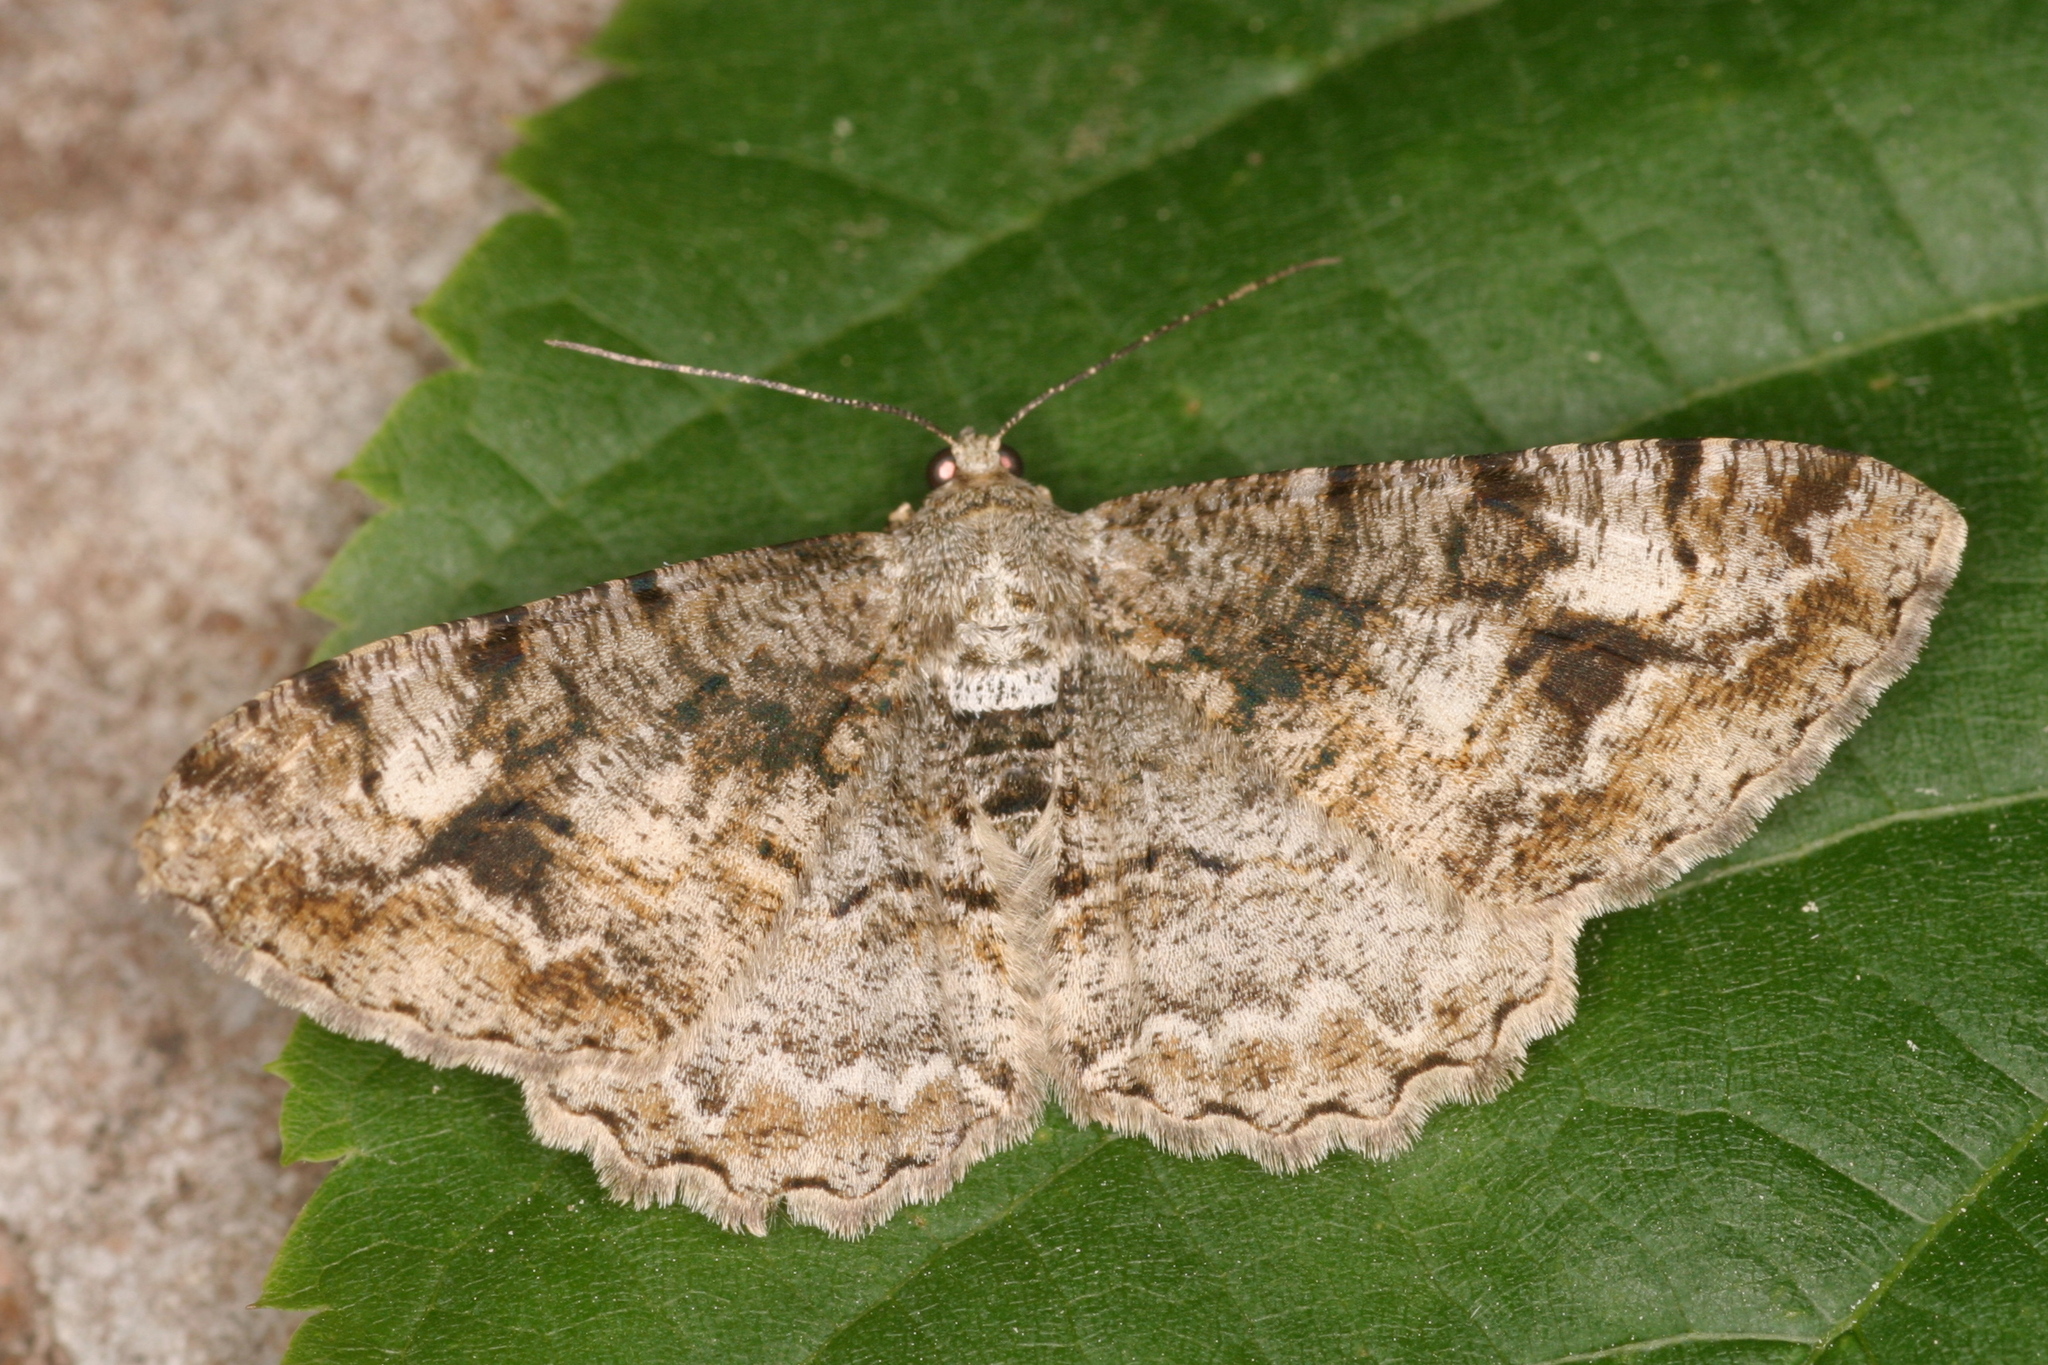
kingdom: Animalia
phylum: Arthropoda
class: Insecta
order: Lepidoptera
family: Geometridae
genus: Alcis
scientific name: Alcis repandata
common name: Mottled beauty
